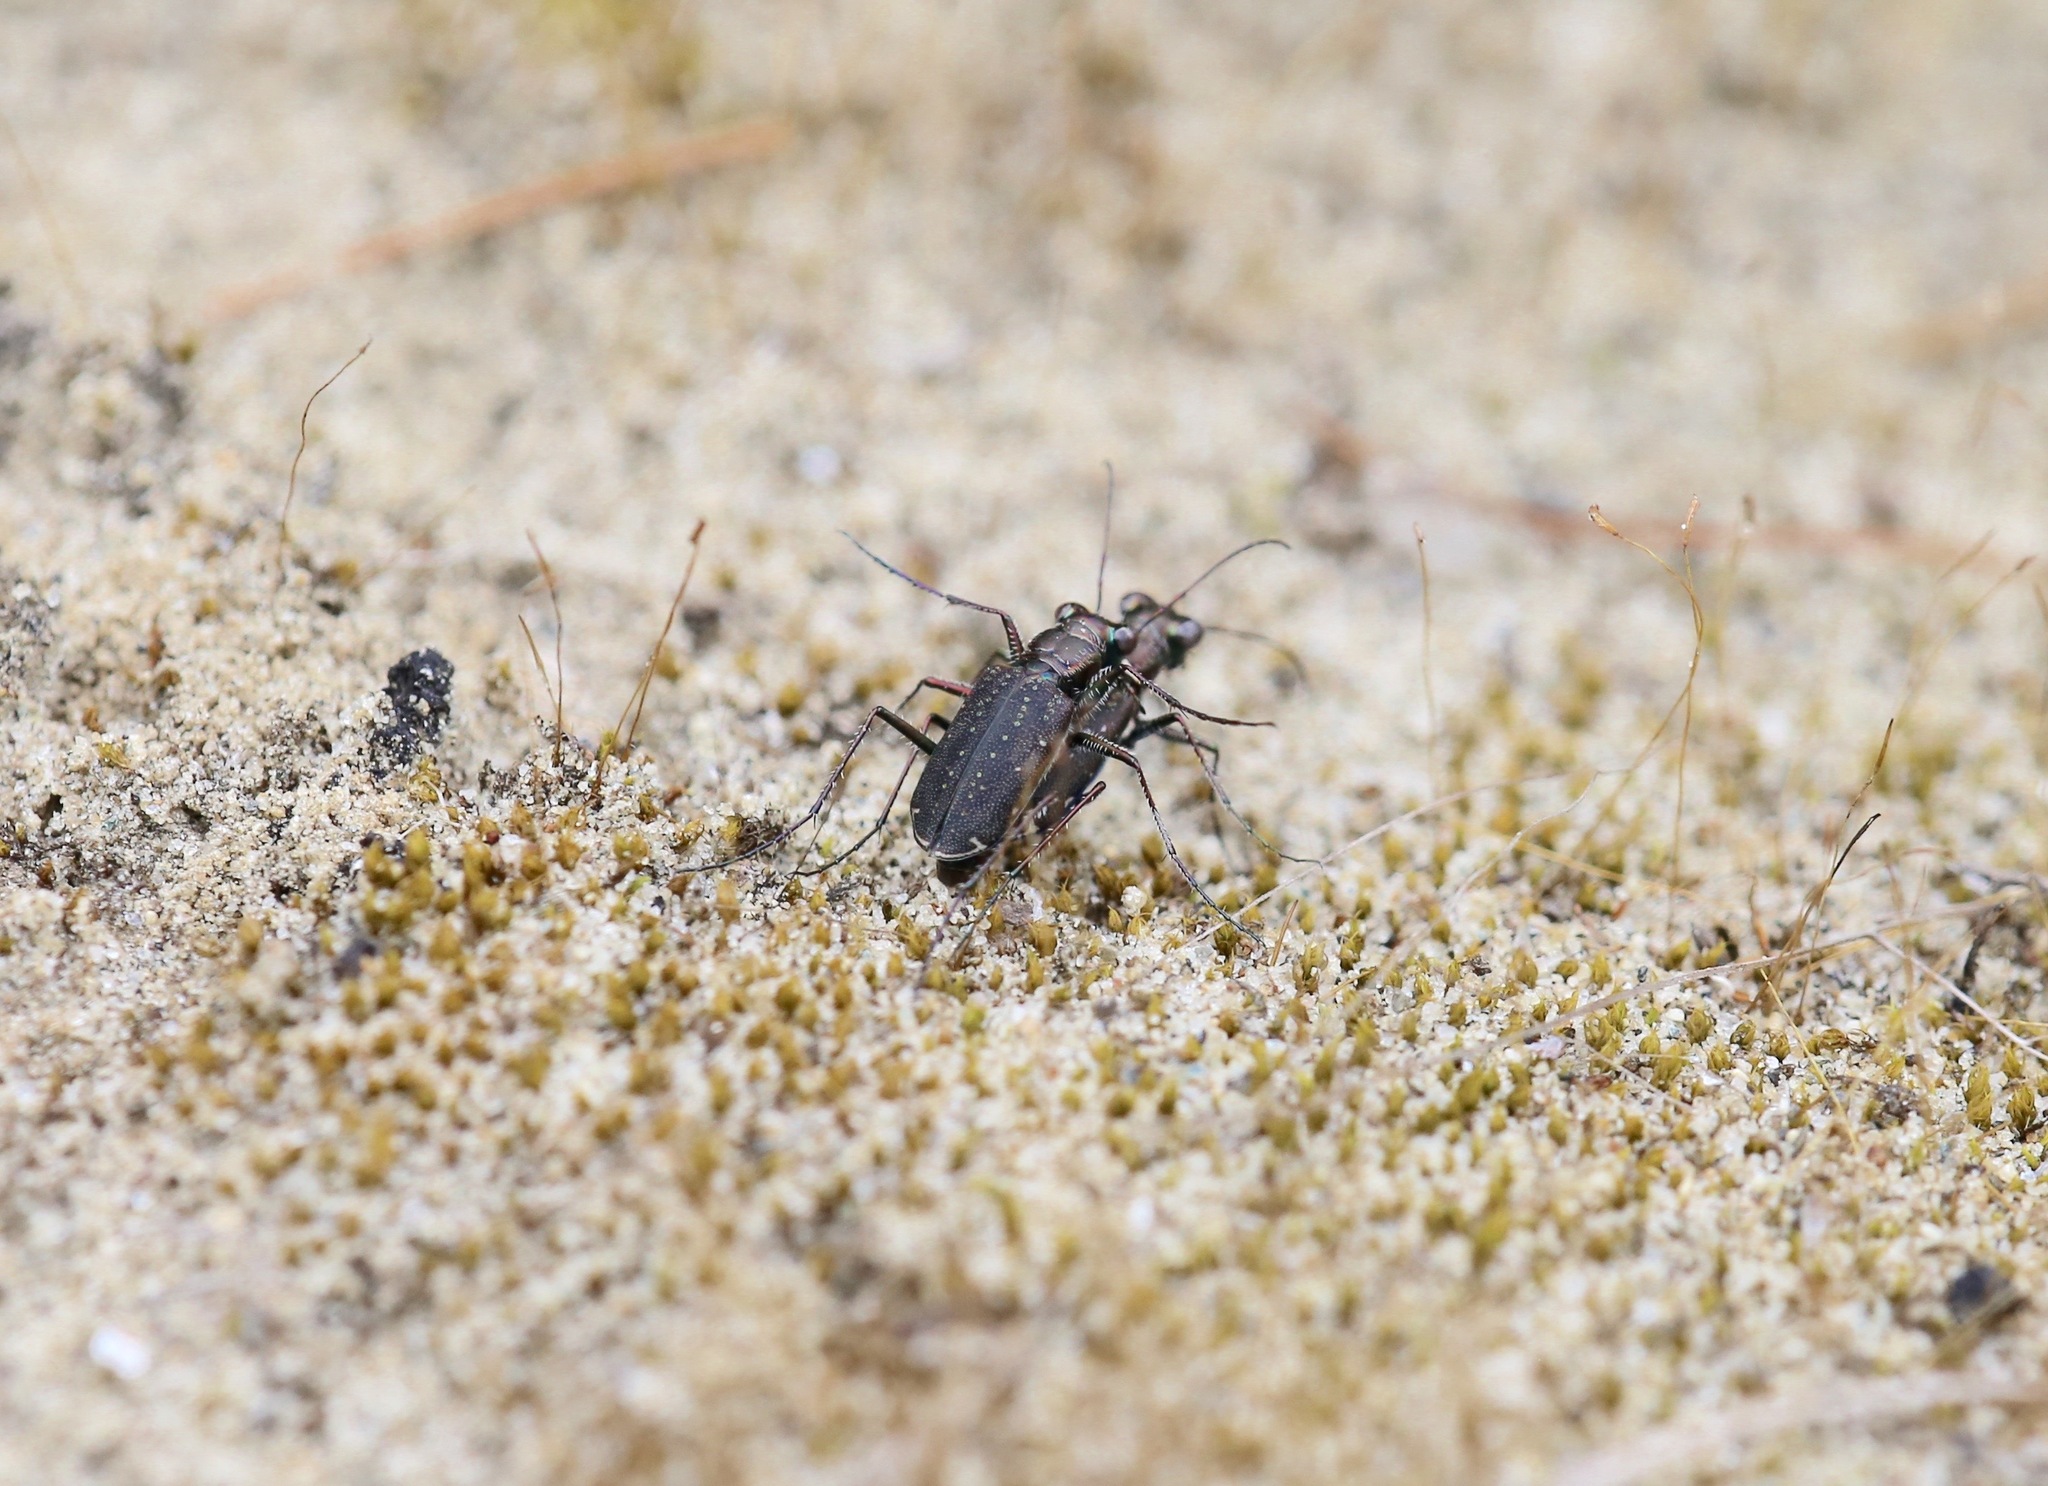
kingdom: Animalia
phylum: Arthropoda
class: Insecta
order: Coleoptera
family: Carabidae
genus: Cicindela
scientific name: Cicindela punctulata
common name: Punctured tiger beetle
